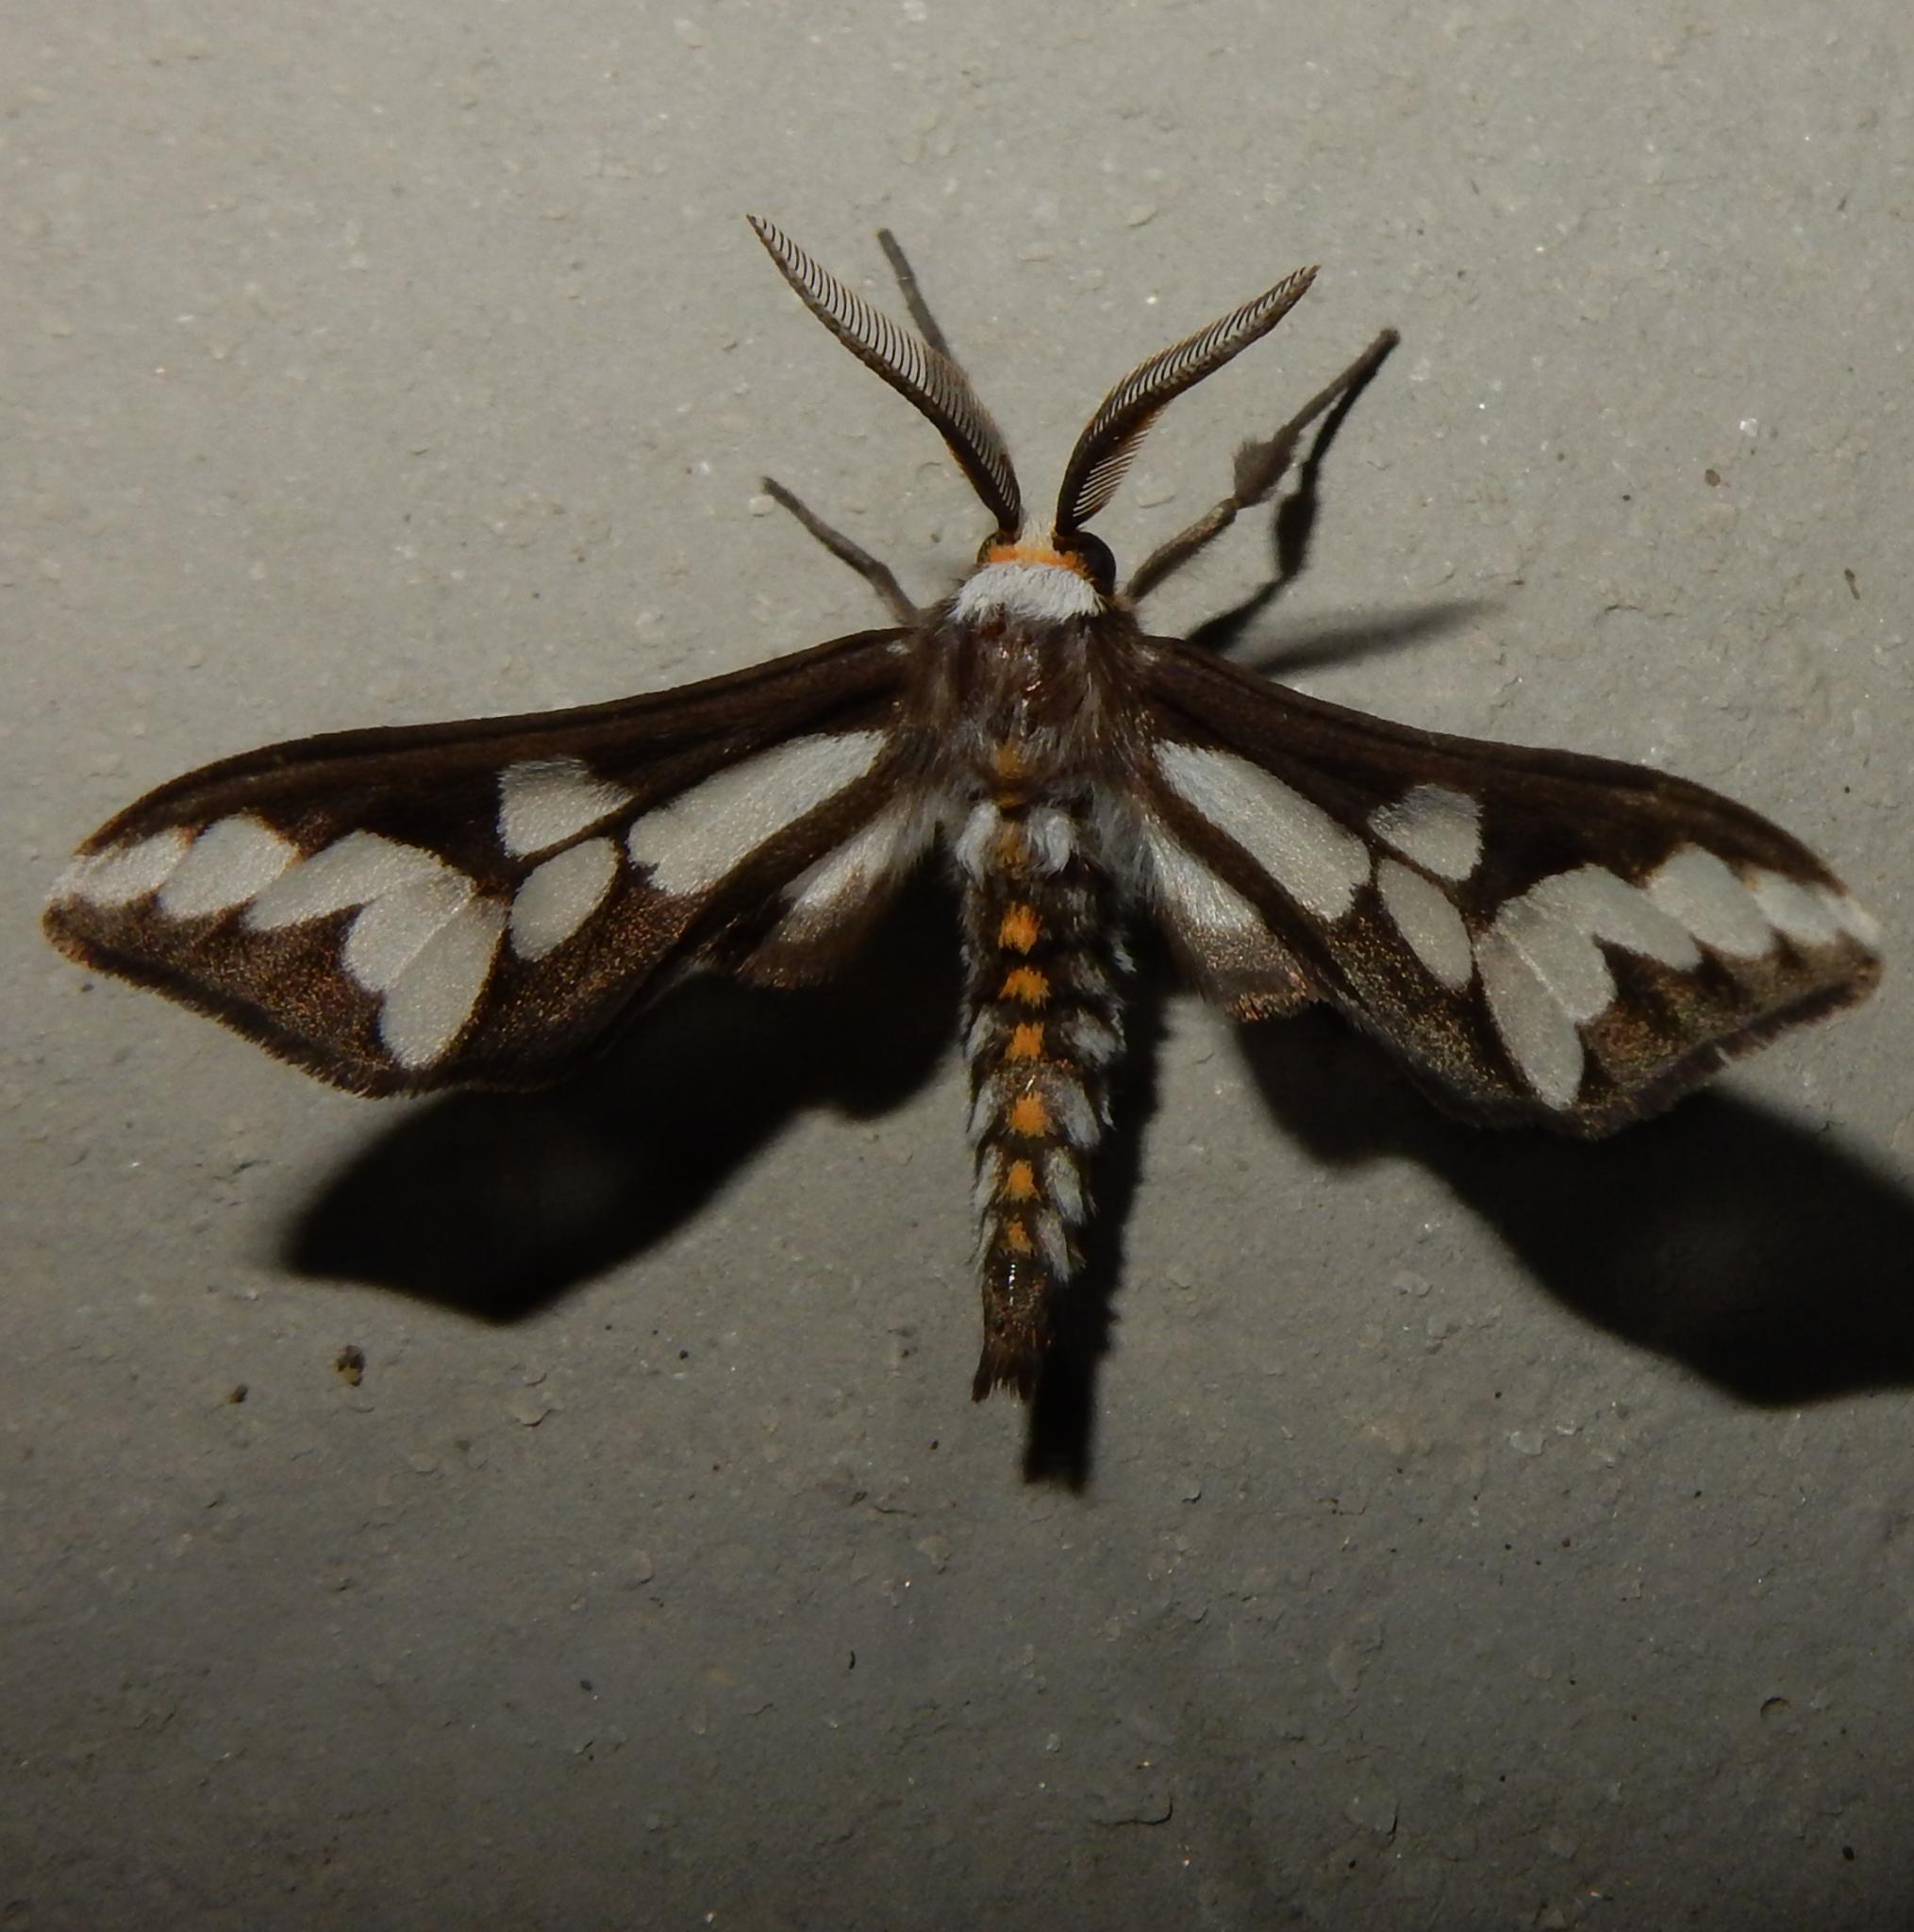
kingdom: Animalia
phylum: Arthropoda
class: Insecta
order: Lepidoptera
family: Erebidae
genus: Thyretes
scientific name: Thyretes caffra
